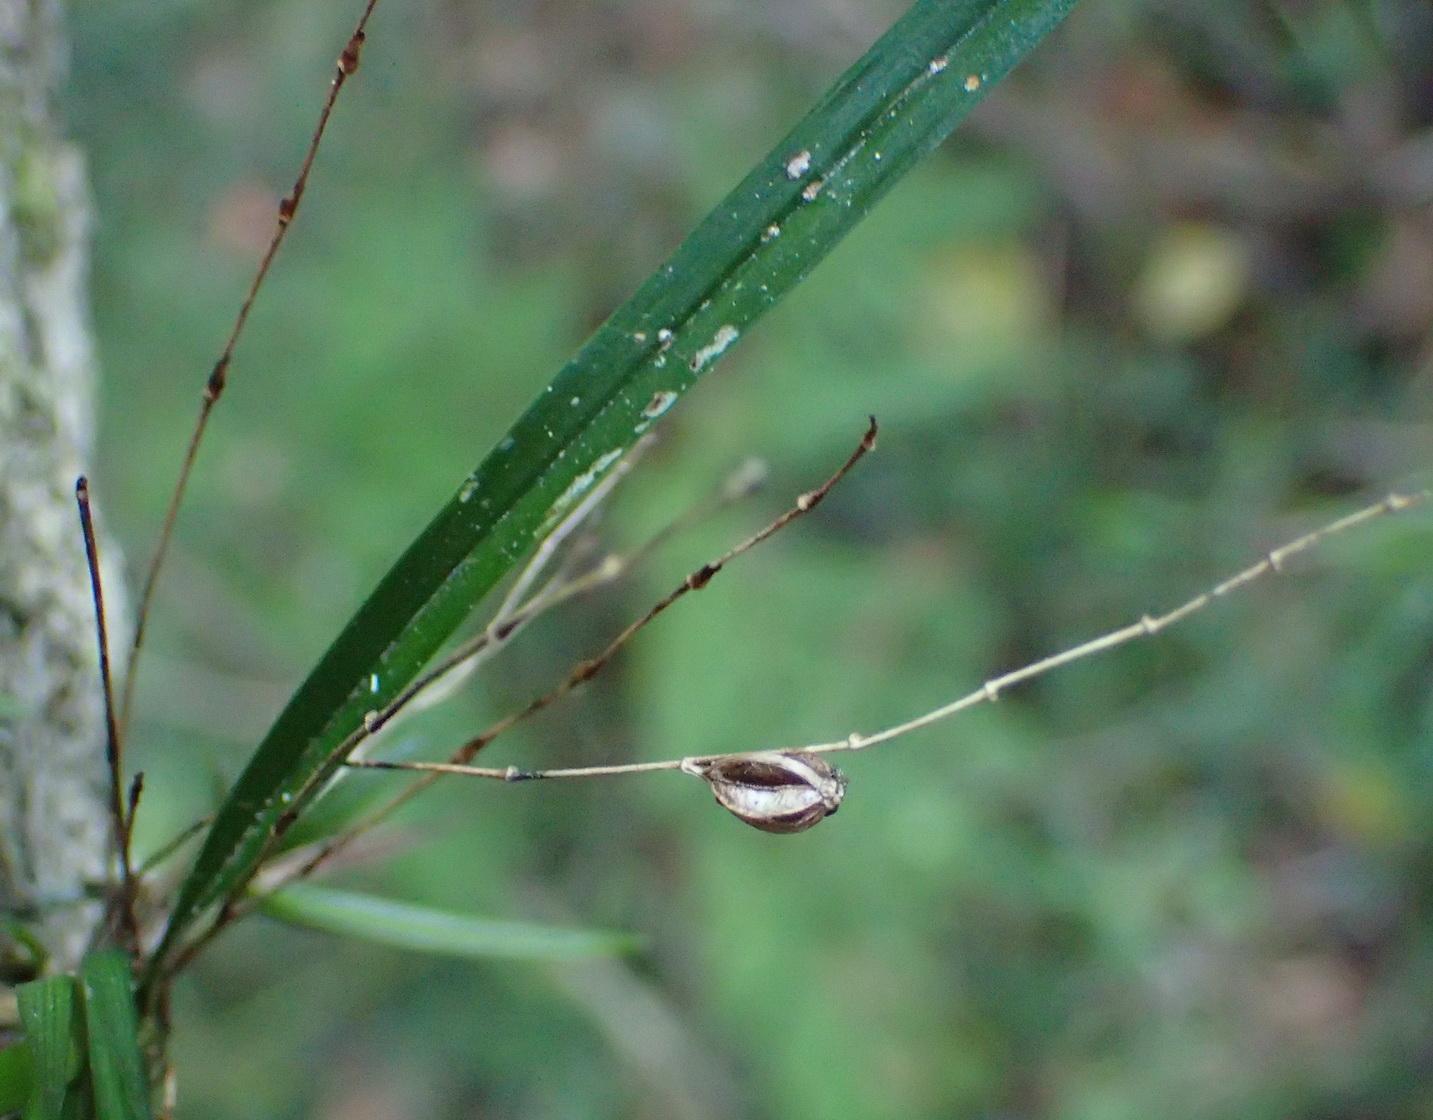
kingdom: Plantae
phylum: Tracheophyta
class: Liliopsida
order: Asparagales
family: Orchidaceae
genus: Angraecum
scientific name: Angraecum pusillum
